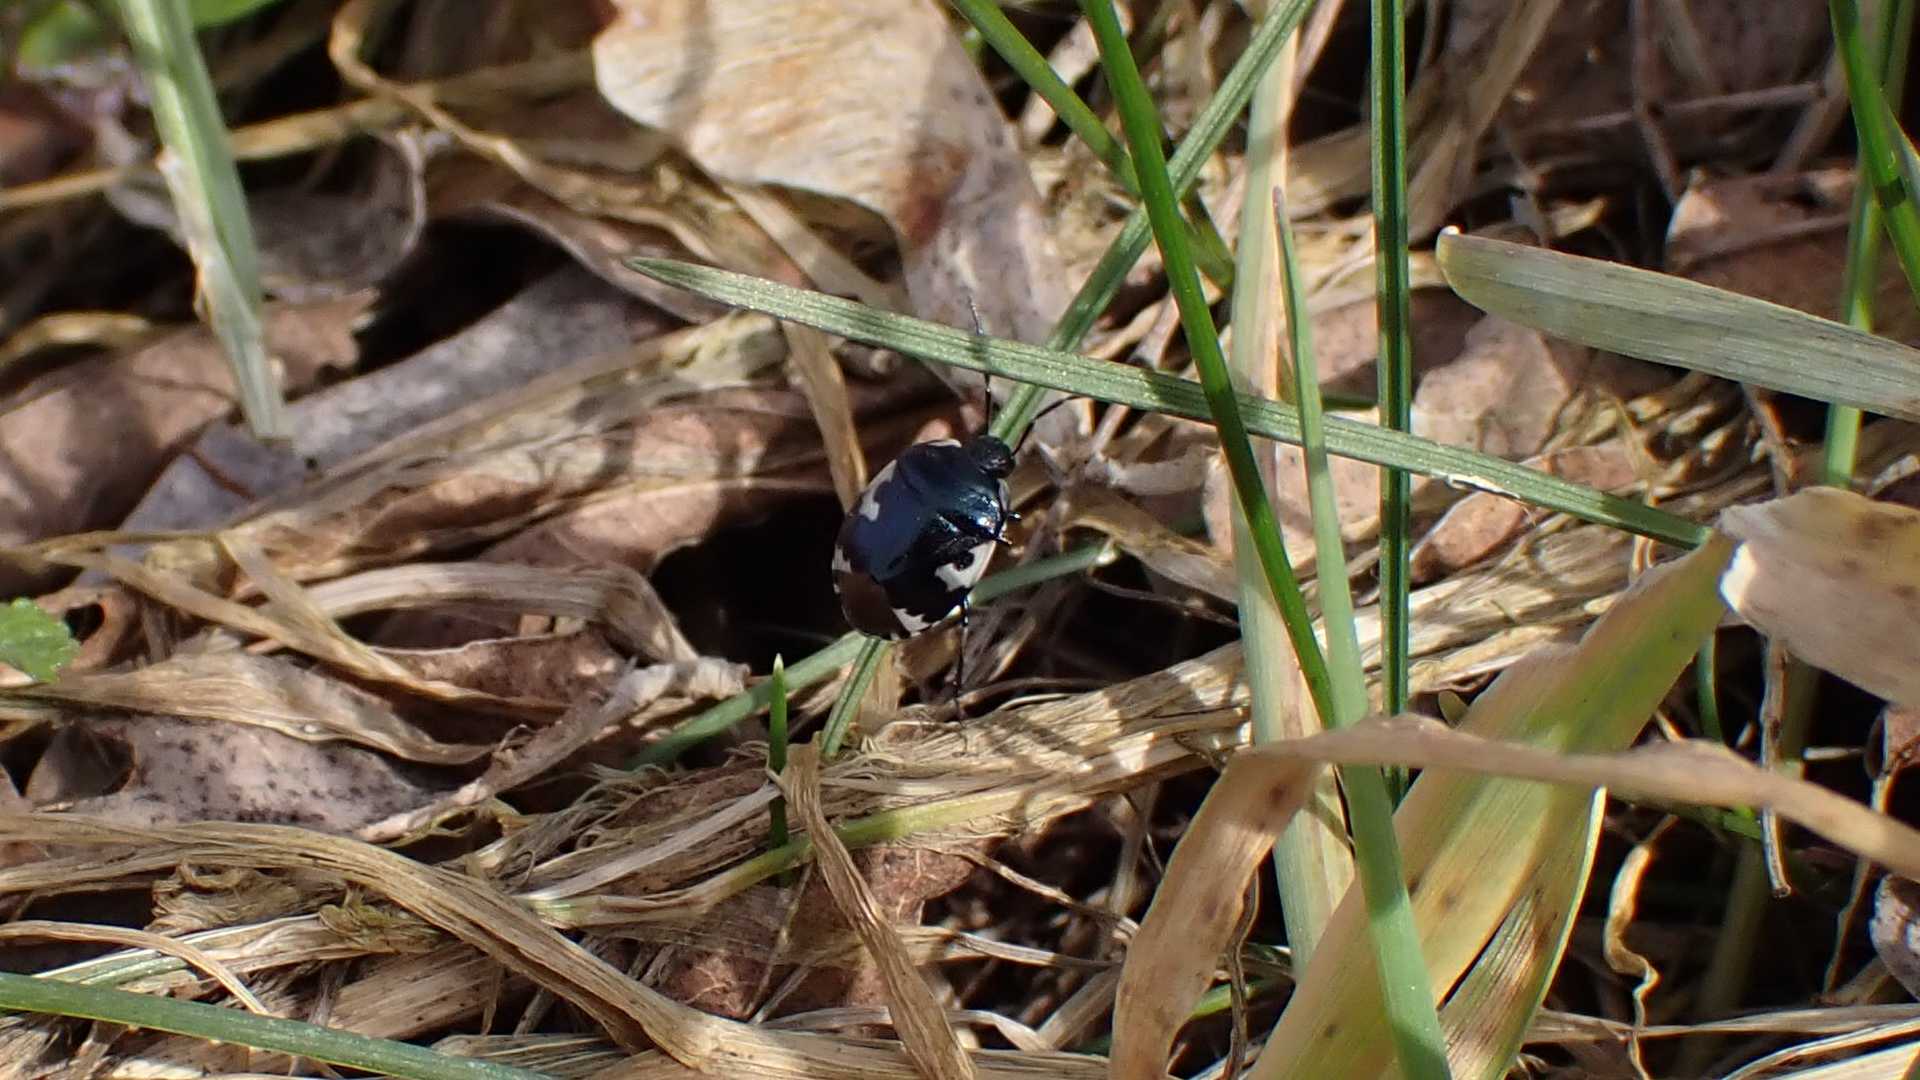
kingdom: Animalia
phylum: Arthropoda
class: Insecta
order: Hemiptera
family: Cydnidae
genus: Tritomegas
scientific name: Tritomegas bicolor
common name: Pied shieldbug
